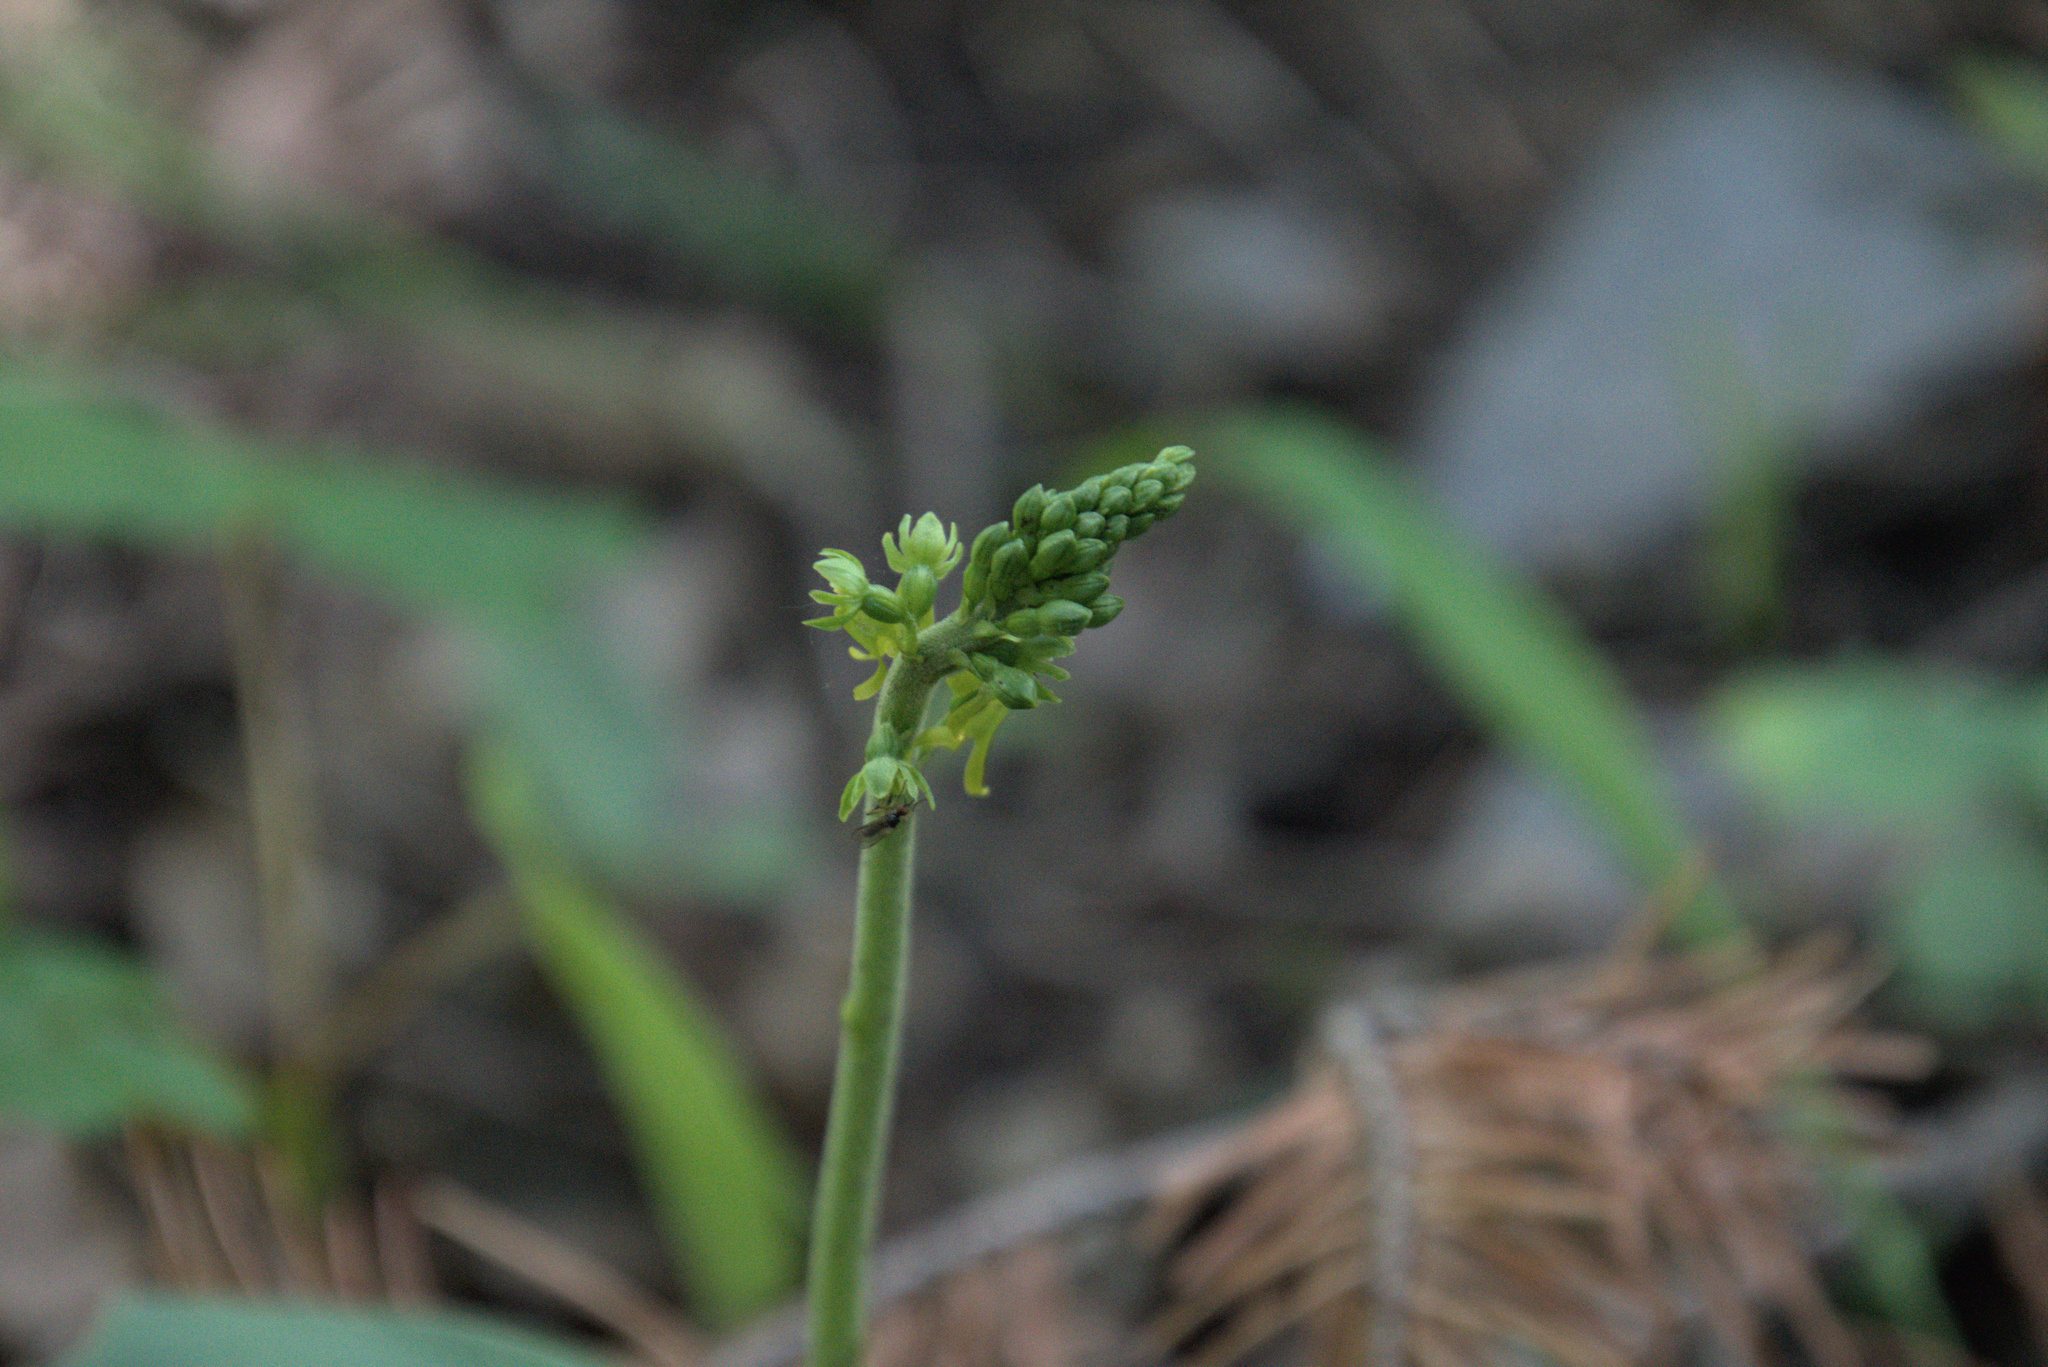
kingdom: Plantae
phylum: Tracheophyta
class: Liliopsida
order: Asparagales
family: Orchidaceae
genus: Neottia
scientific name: Neottia ovata
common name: Common twayblade
